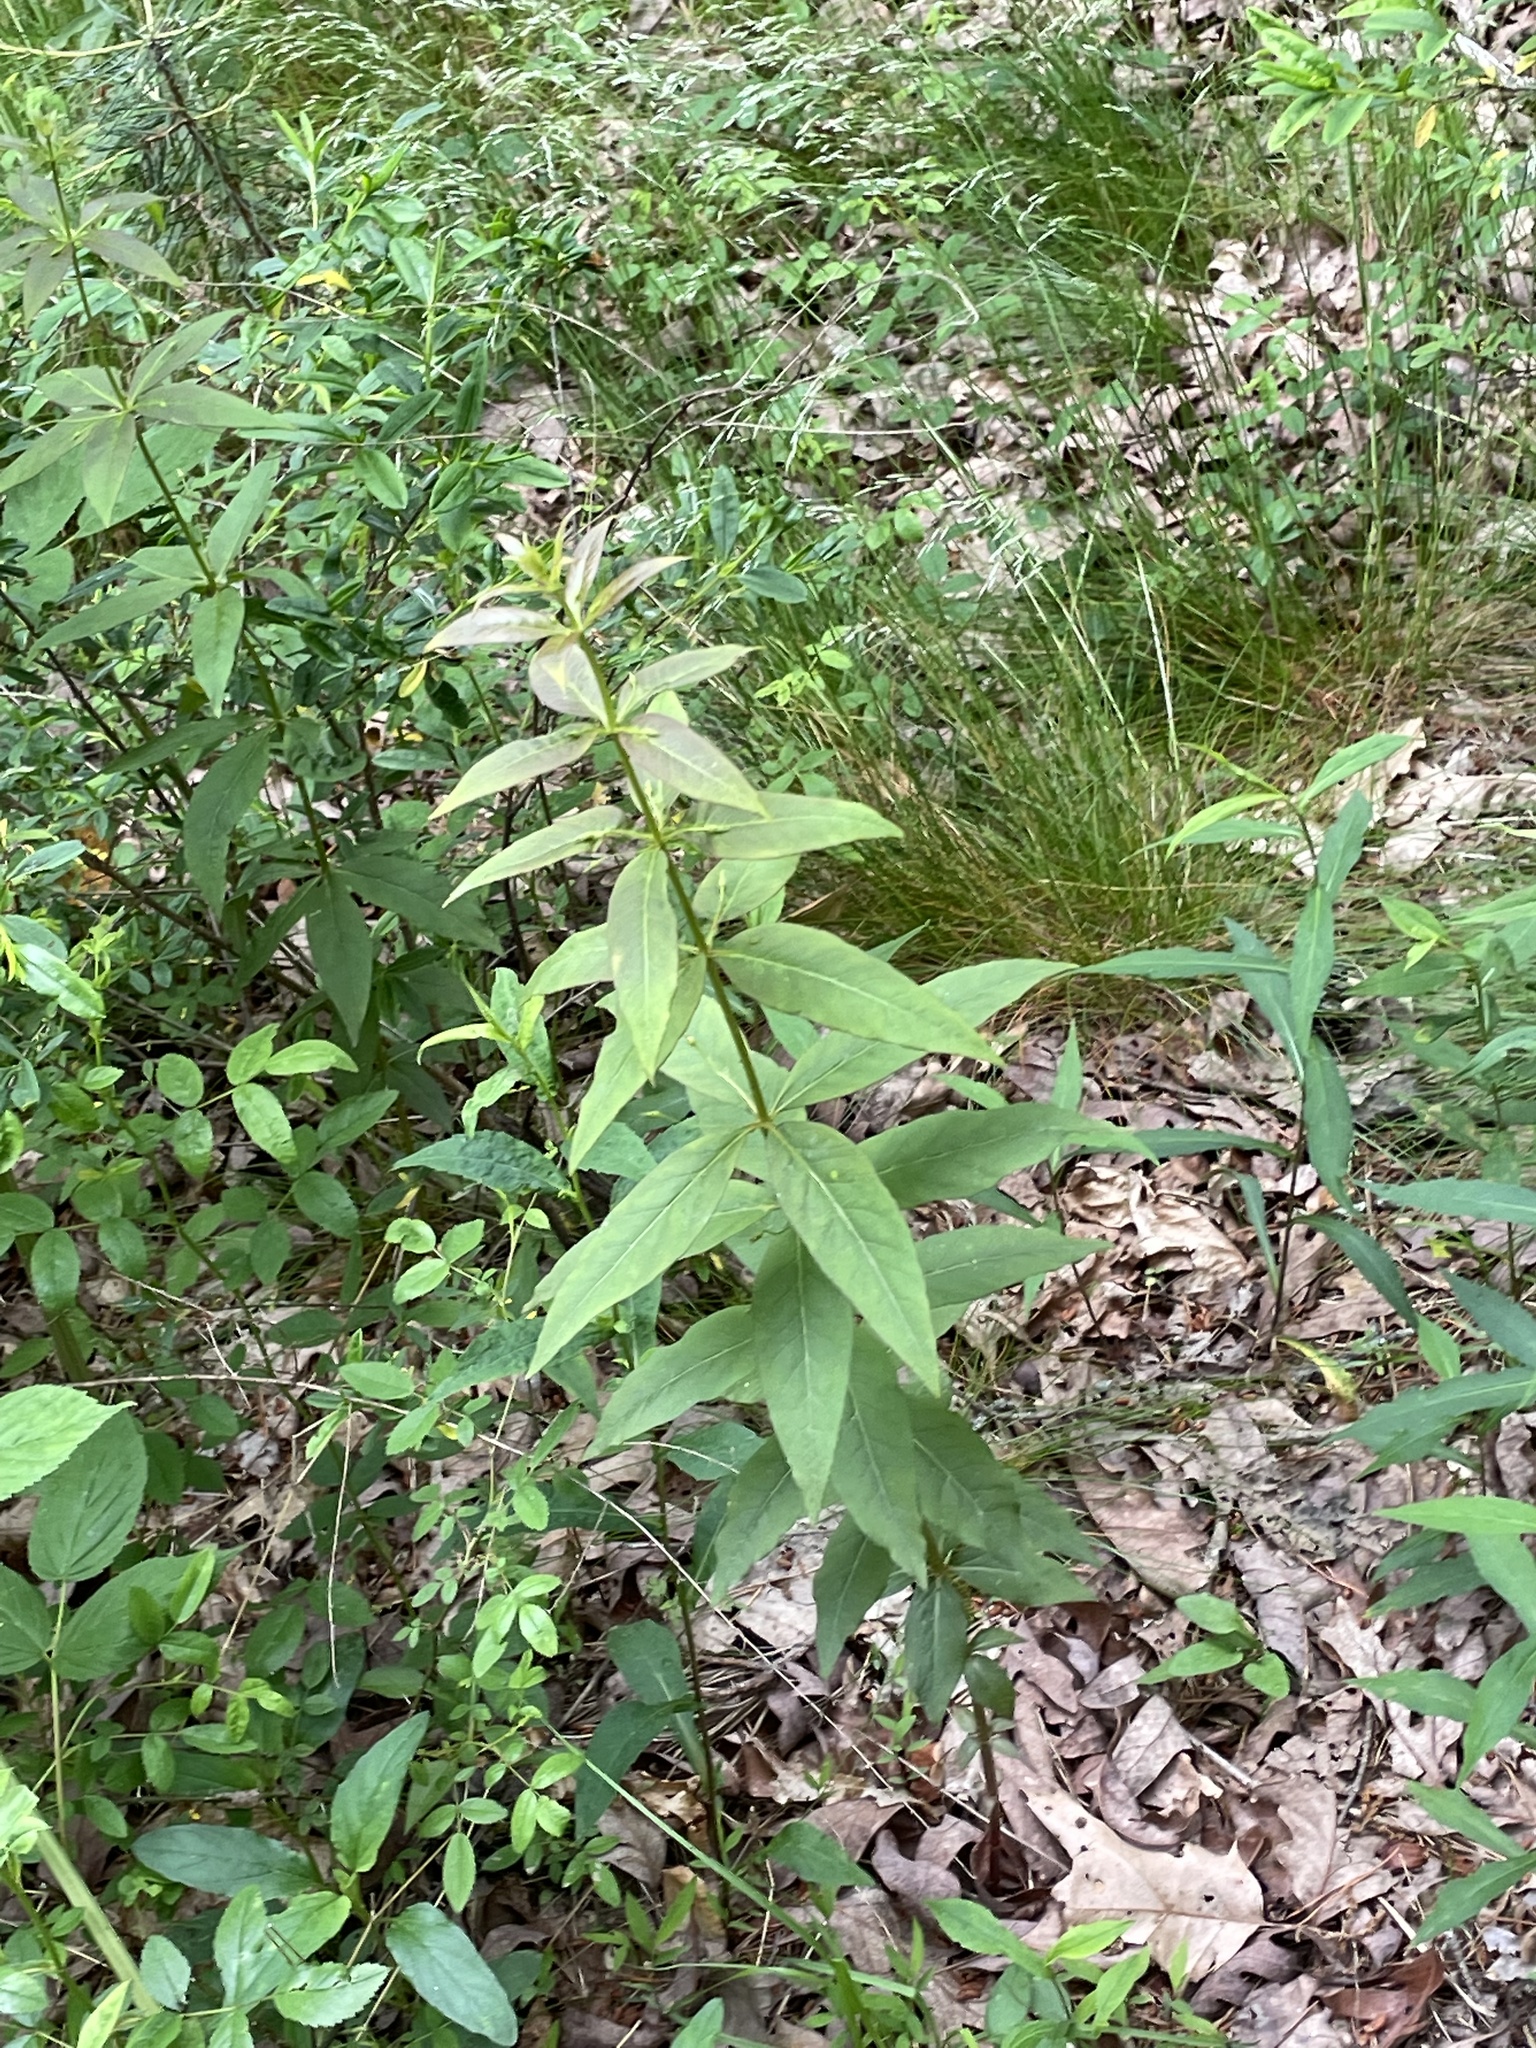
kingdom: Plantae
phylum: Tracheophyta
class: Magnoliopsida
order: Ericales
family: Primulaceae
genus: Lysimachia
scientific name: Lysimachia quadrifolia
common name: Whorled loosestrife
